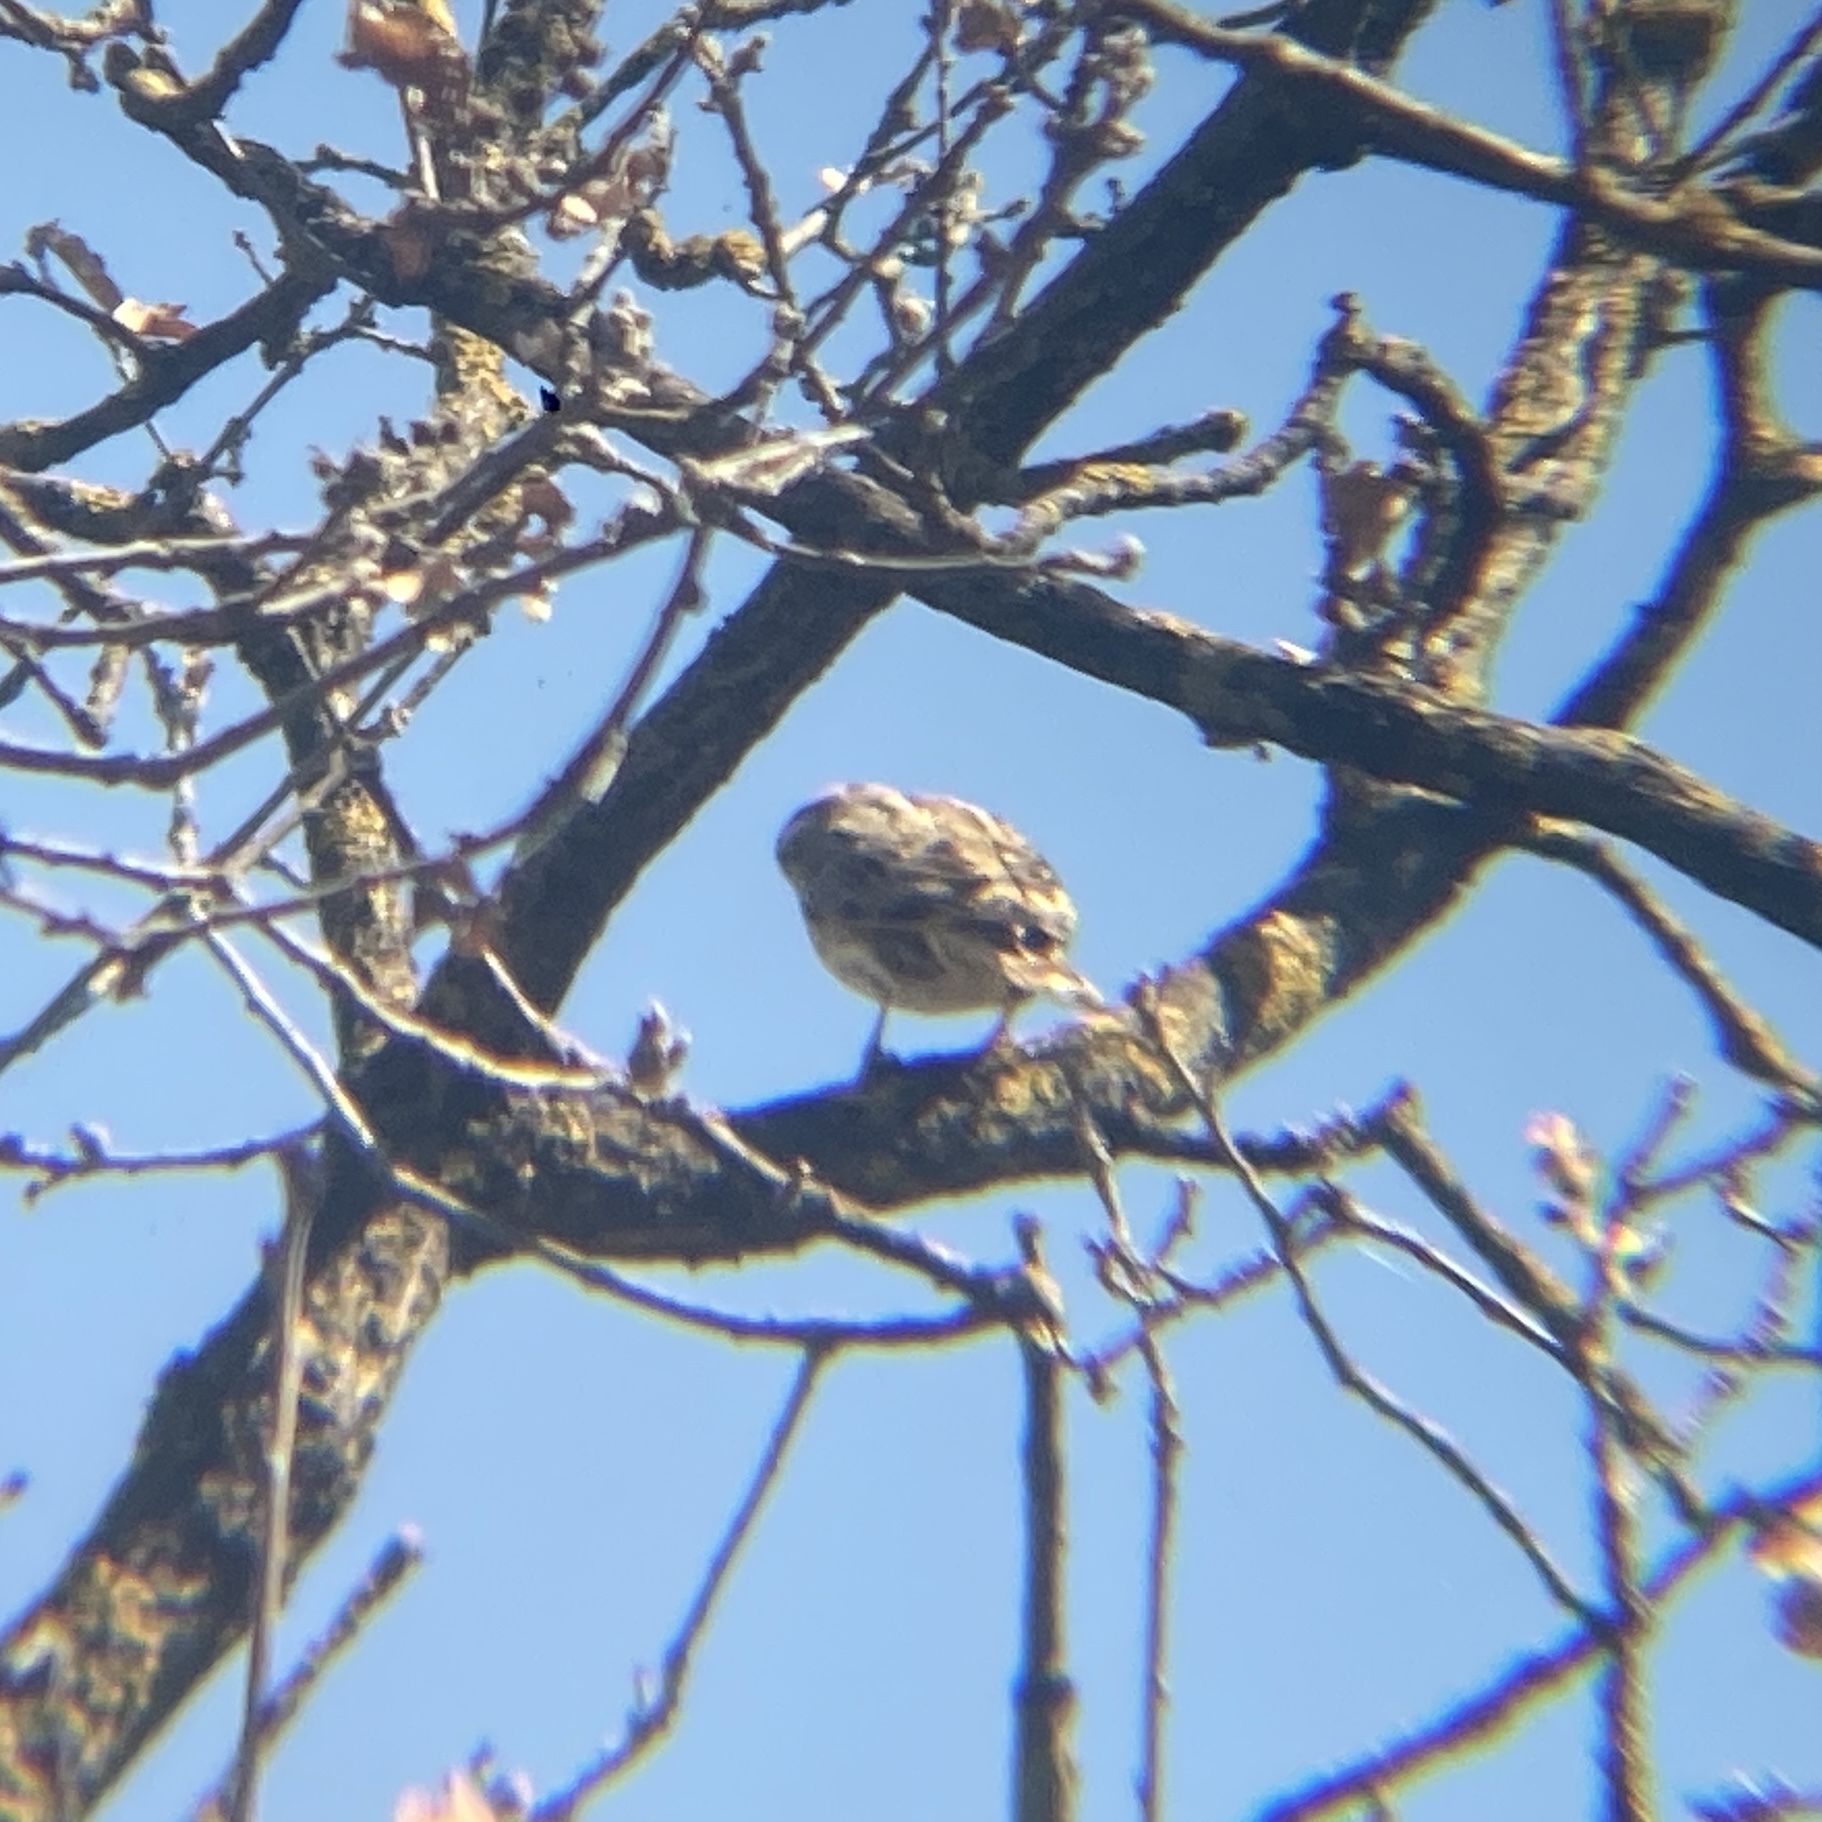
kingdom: Animalia
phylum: Chordata
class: Aves
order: Passeriformes
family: Passeridae
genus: Petronia
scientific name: Petronia petronia
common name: Rock sparrow
